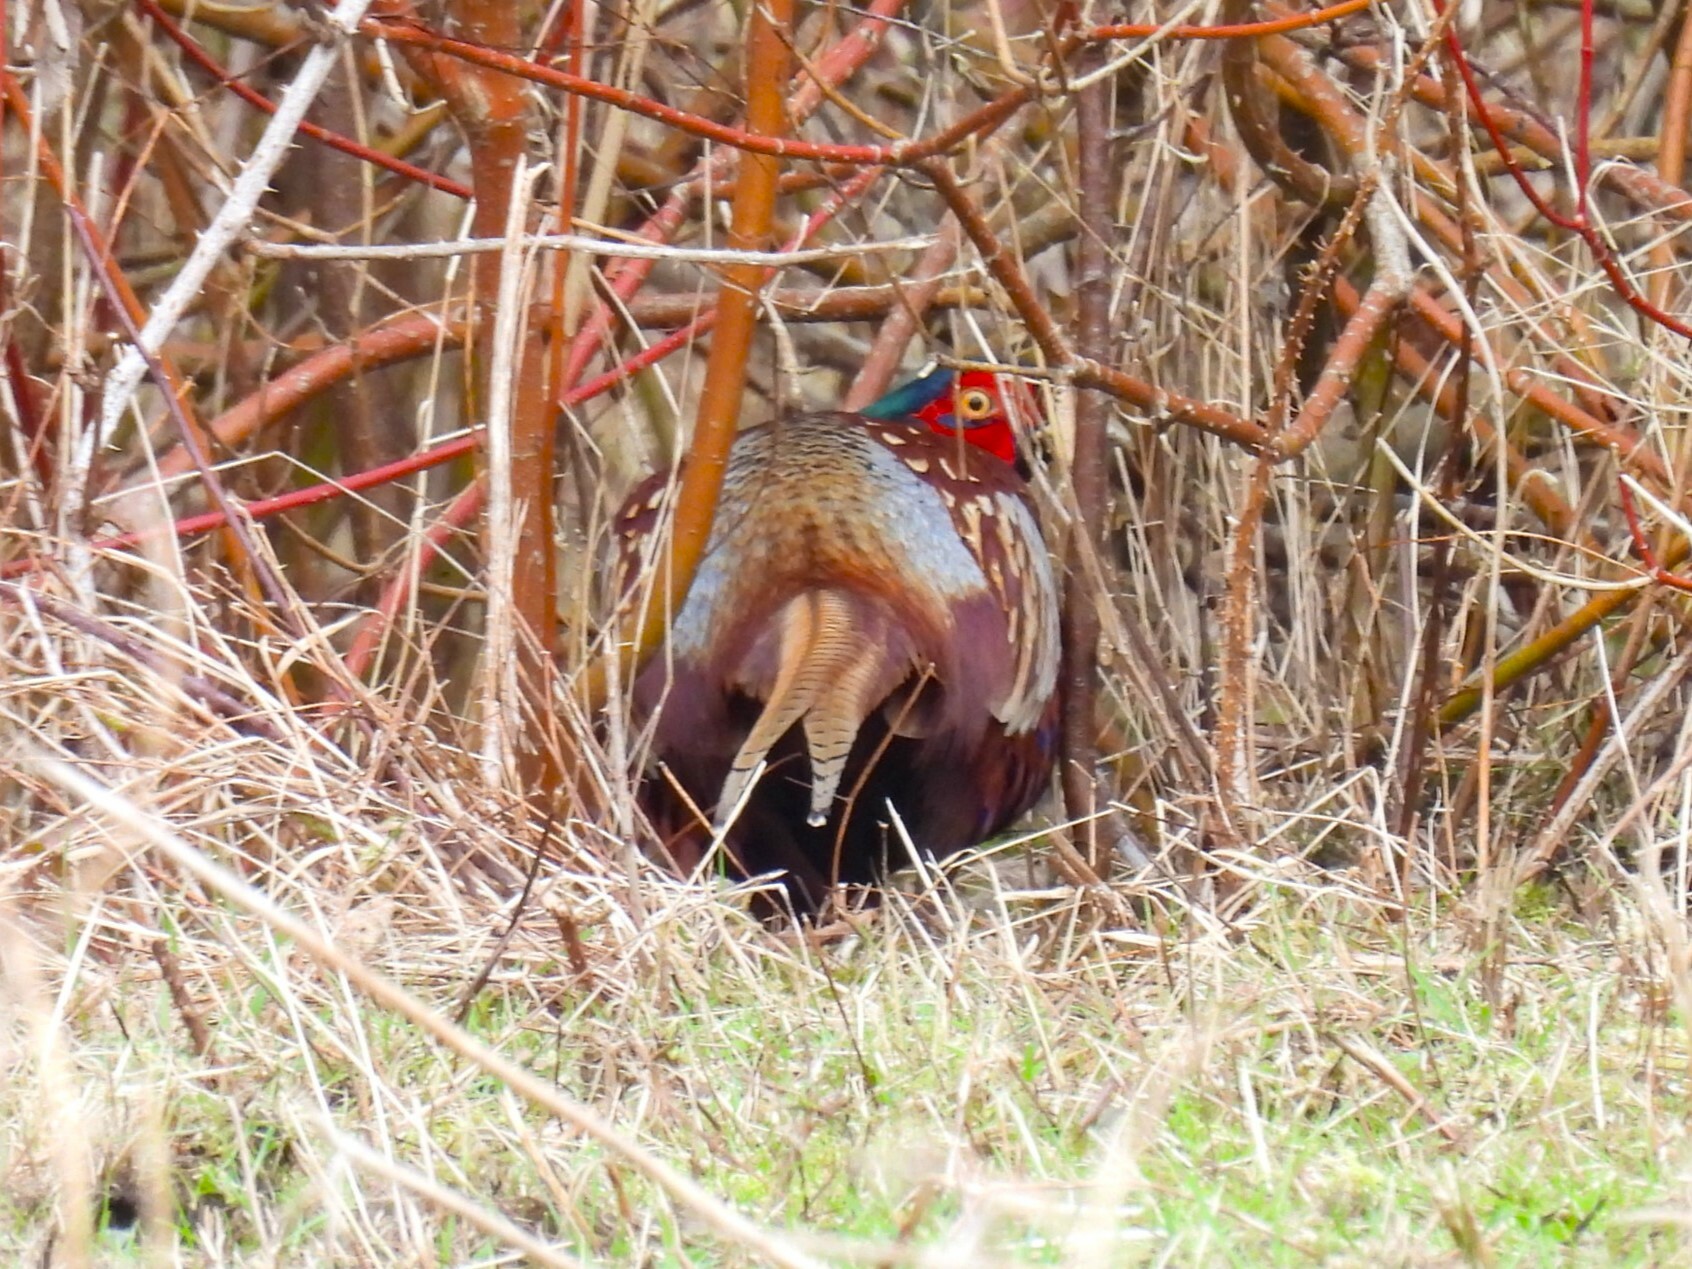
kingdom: Animalia
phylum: Chordata
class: Aves
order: Galliformes
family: Phasianidae
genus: Phasianus
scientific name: Phasianus colchicus
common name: Common pheasant
